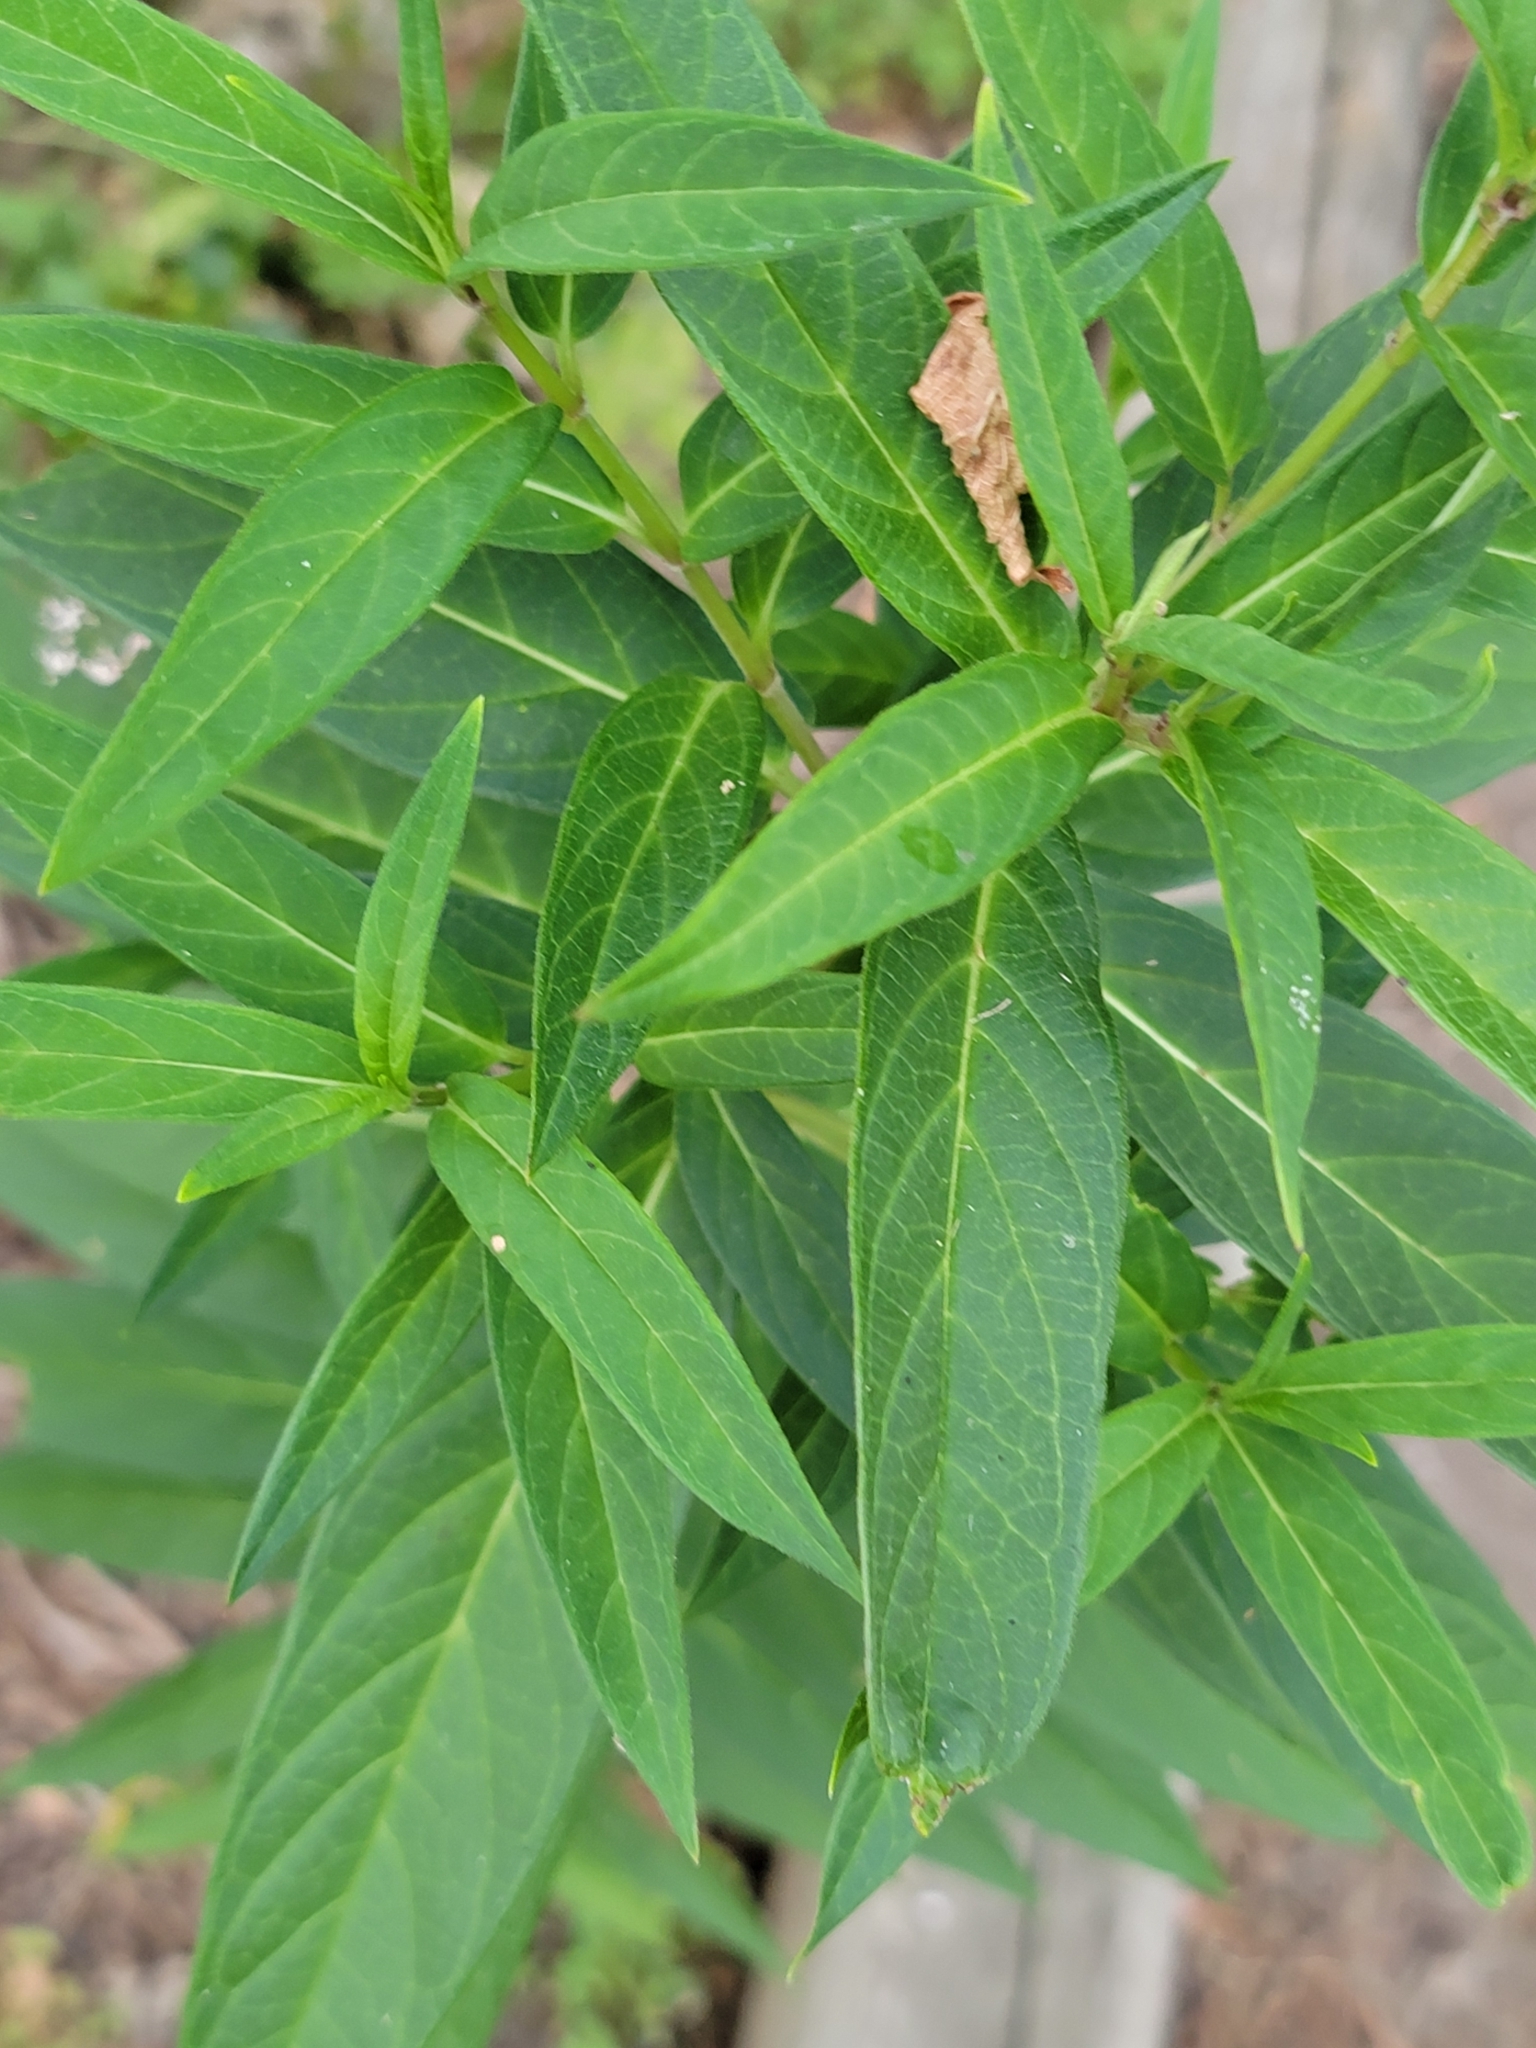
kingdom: Plantae
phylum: Tracheophyta
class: Magnoliopsida
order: Gentianales
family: Apocynaceae
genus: Asclepias
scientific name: Asclepias incarnata
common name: Swamp milkweed
